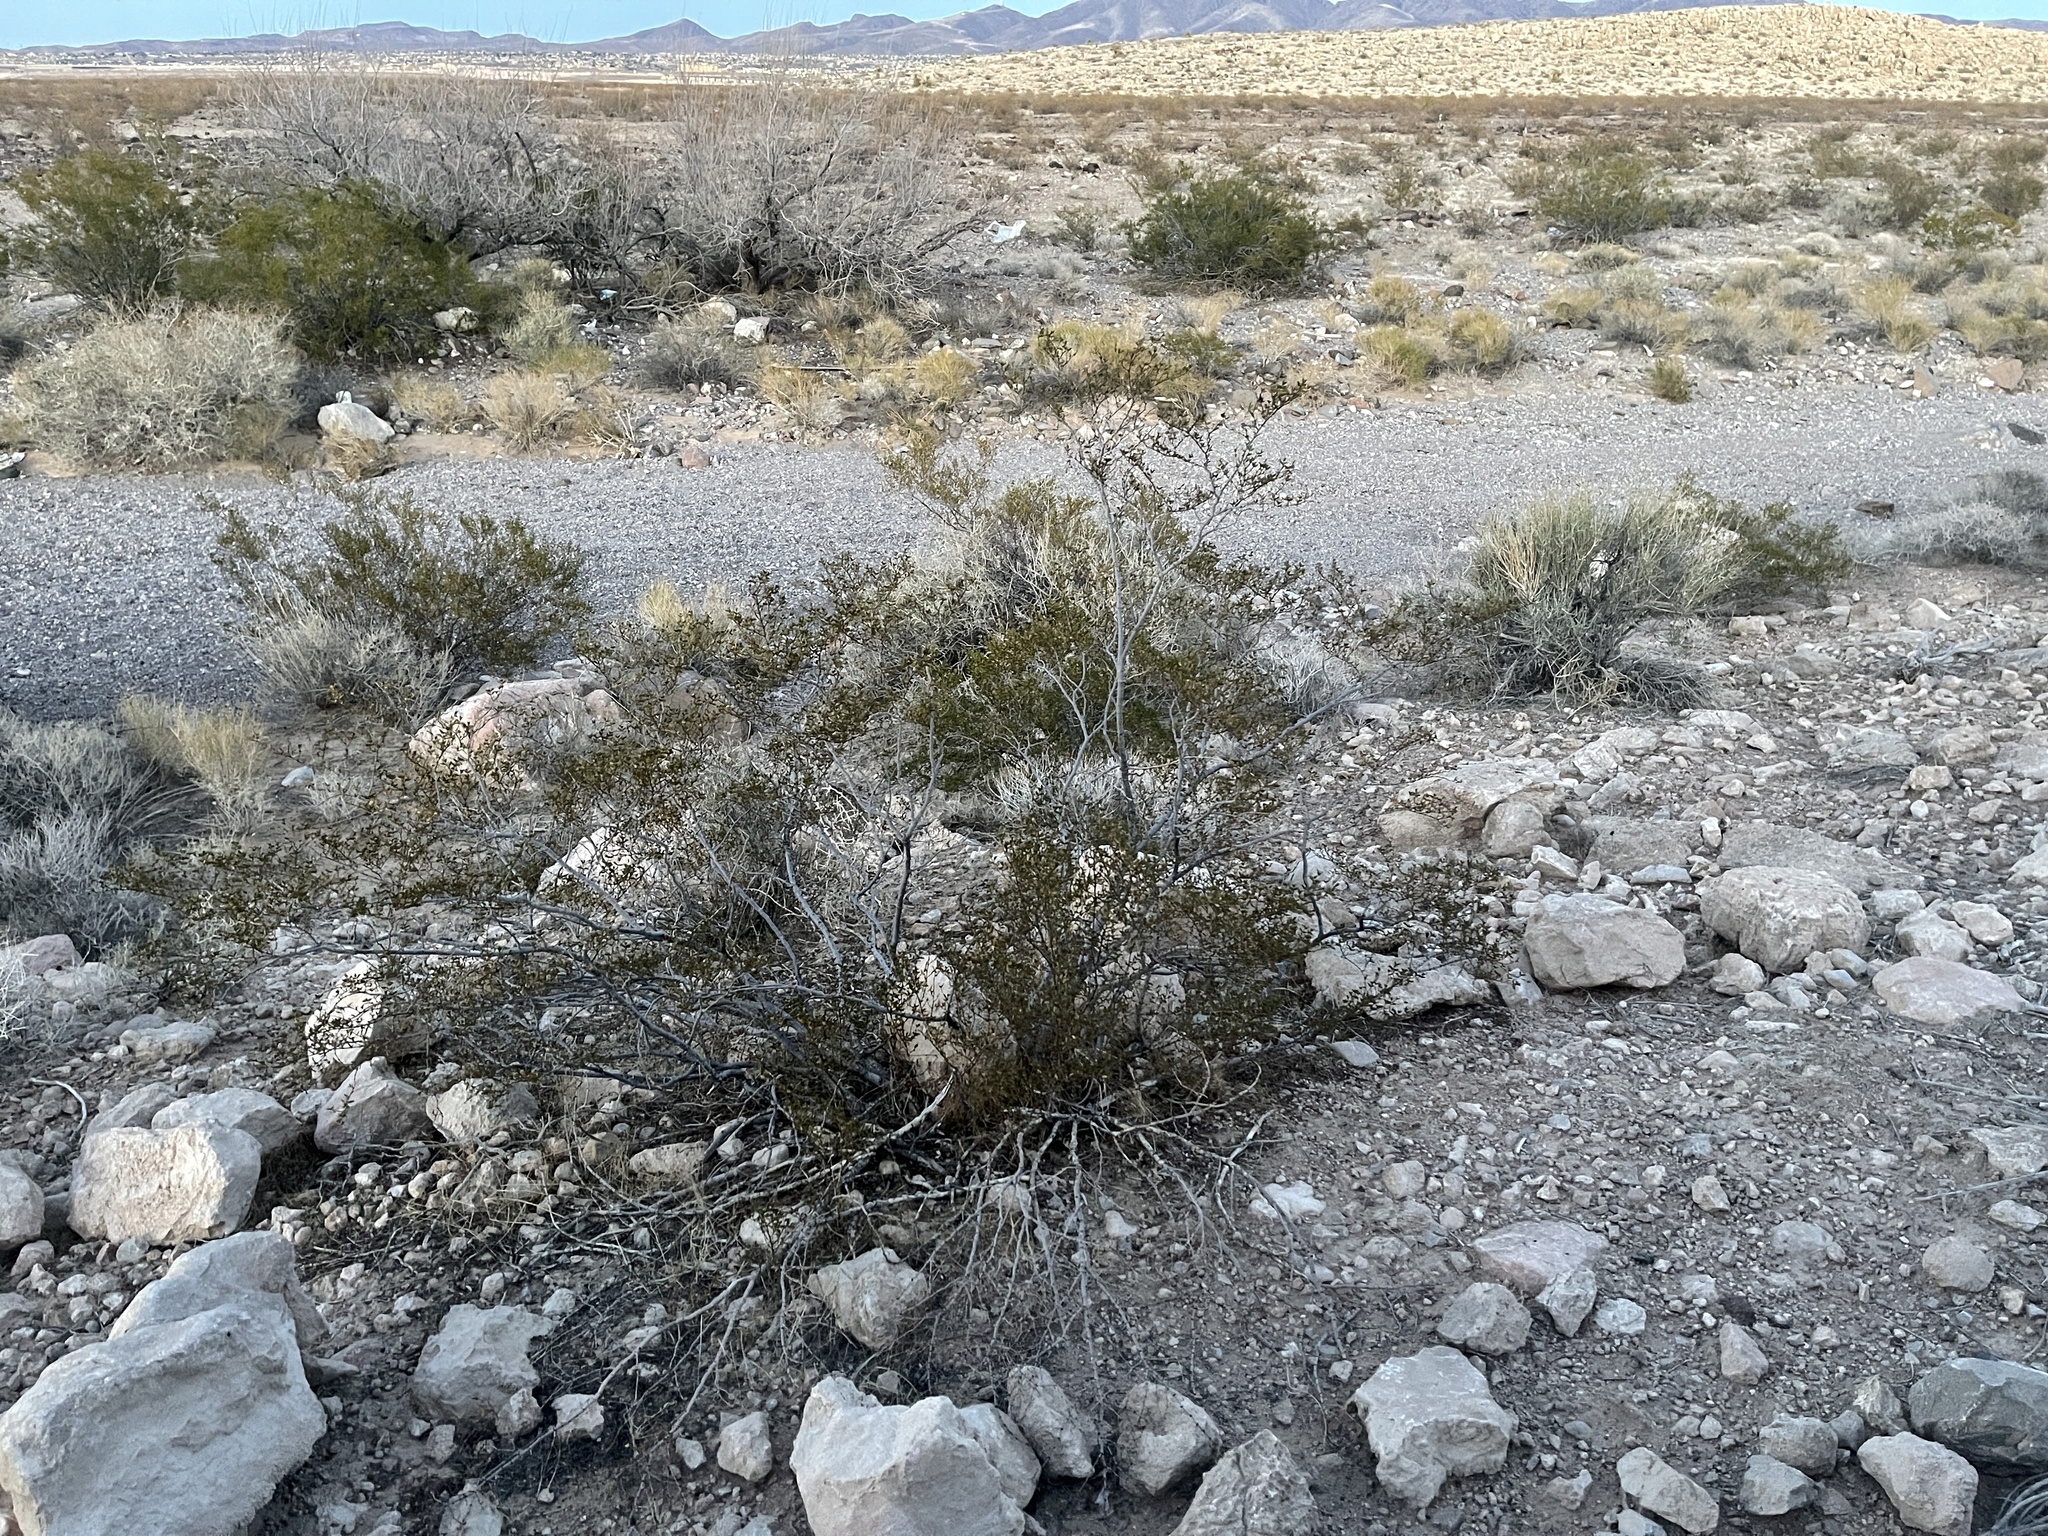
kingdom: Plantae
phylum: Tracheophyta
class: Magnoliopsida
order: Zygophyllales
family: Zygophyllaceae
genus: Larrea
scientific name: Larrea tridentata
